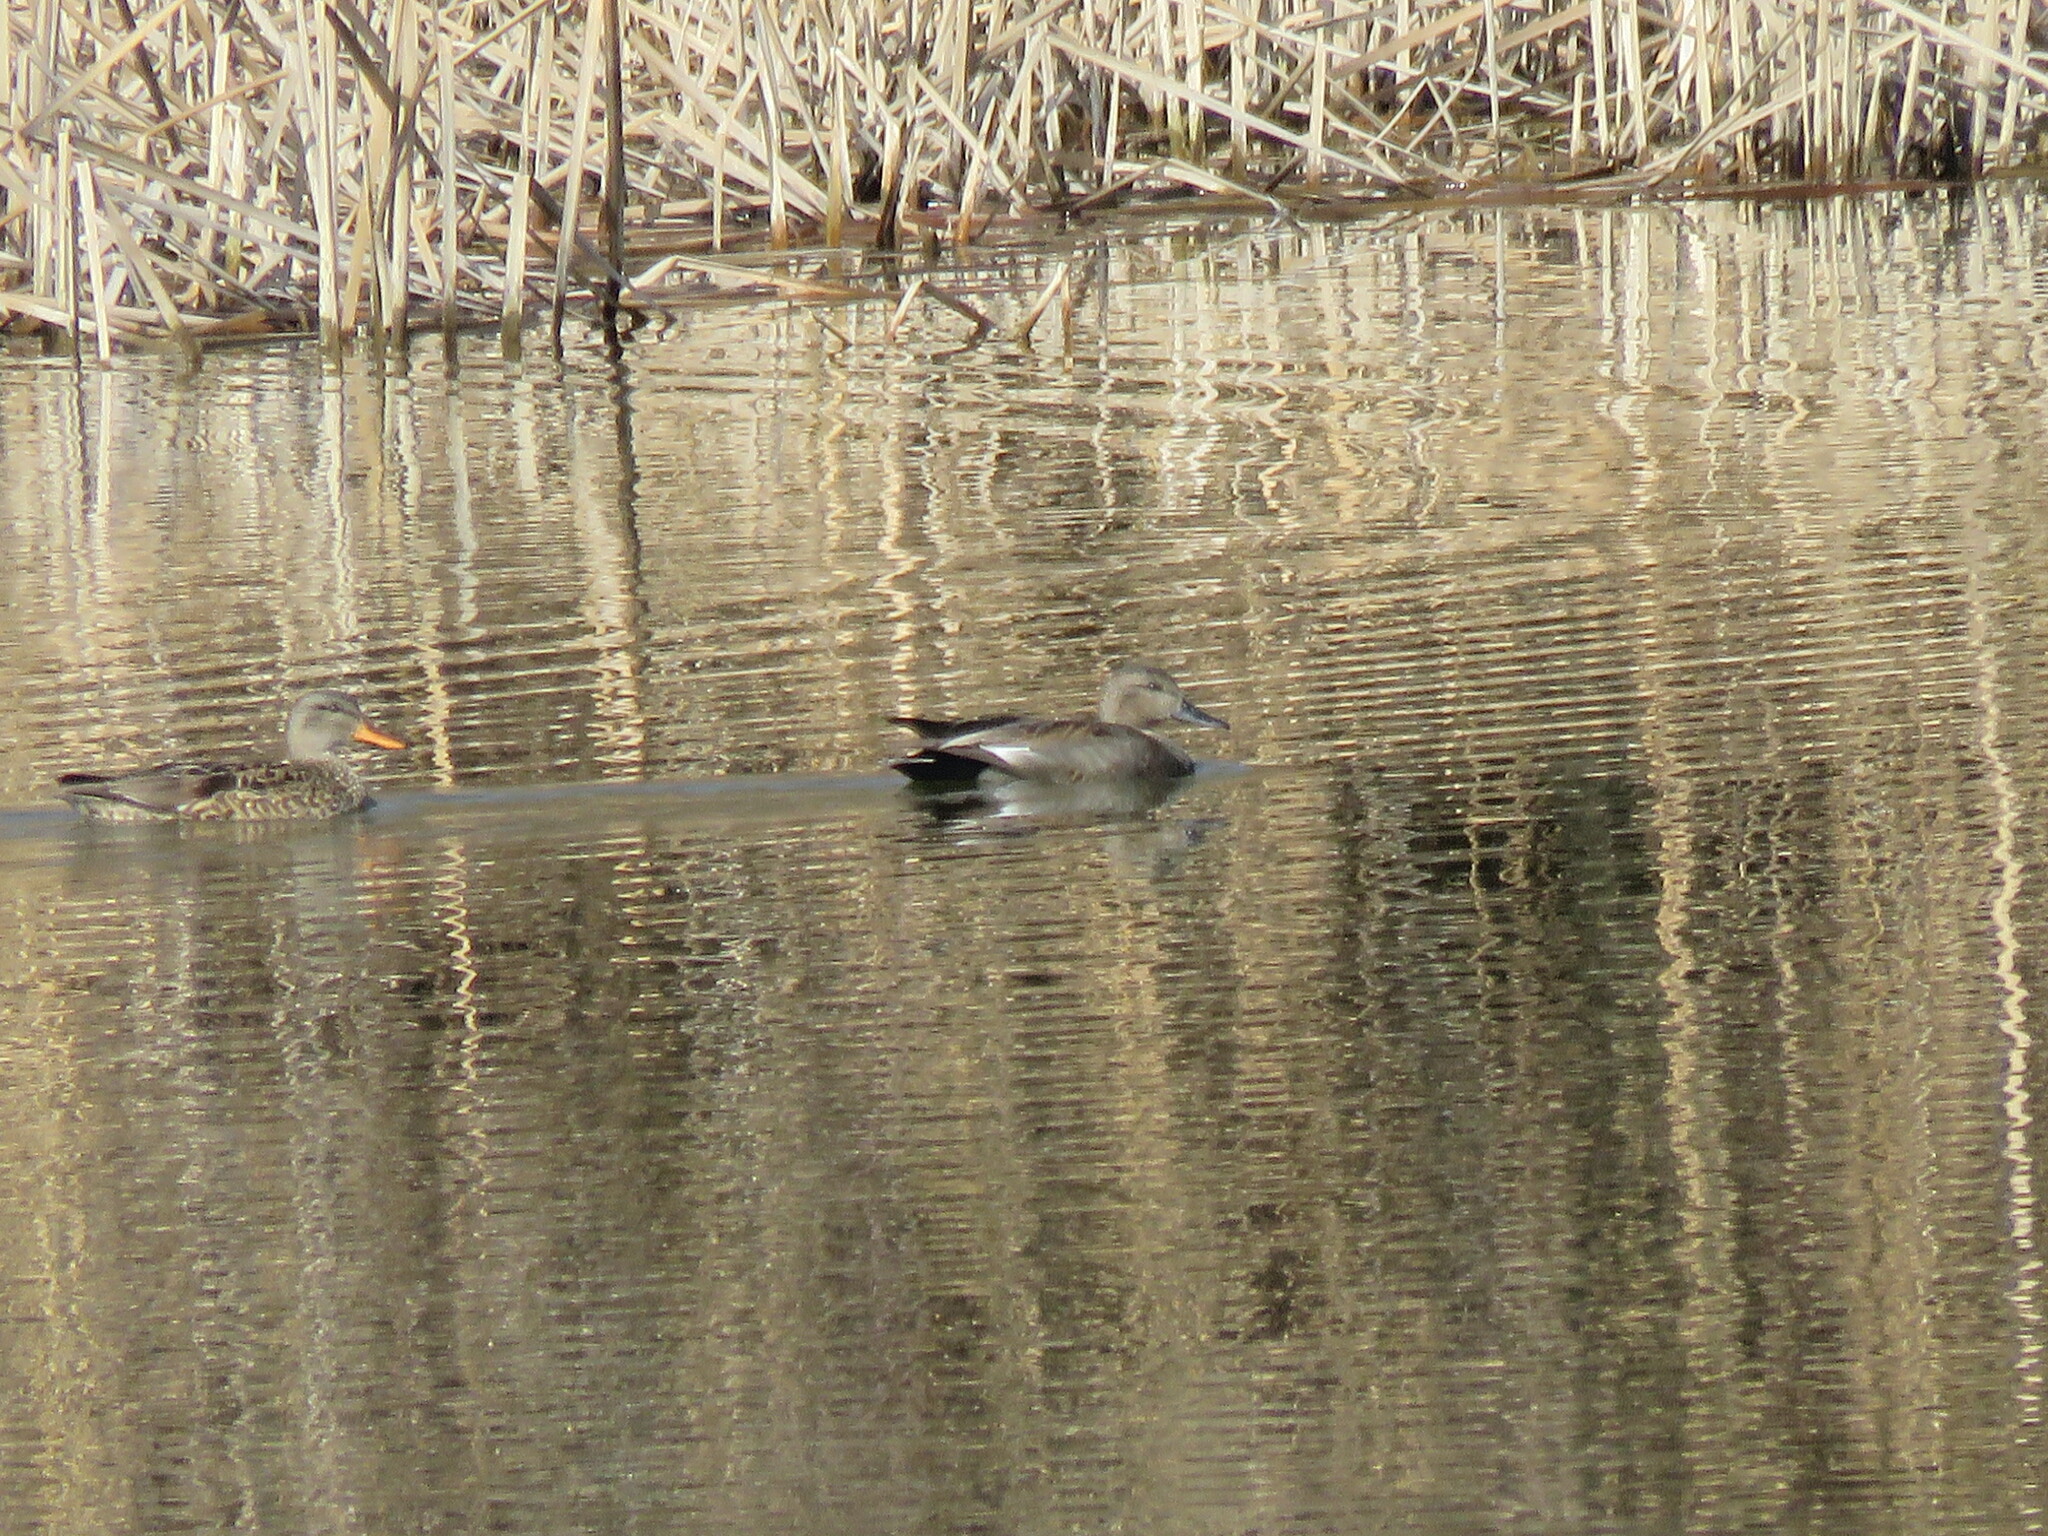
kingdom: Animalia
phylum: Chordata
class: Aves
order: Anseriformes
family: Anatidae
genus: Mareca
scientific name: Mareca strepera
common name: Gadwall
